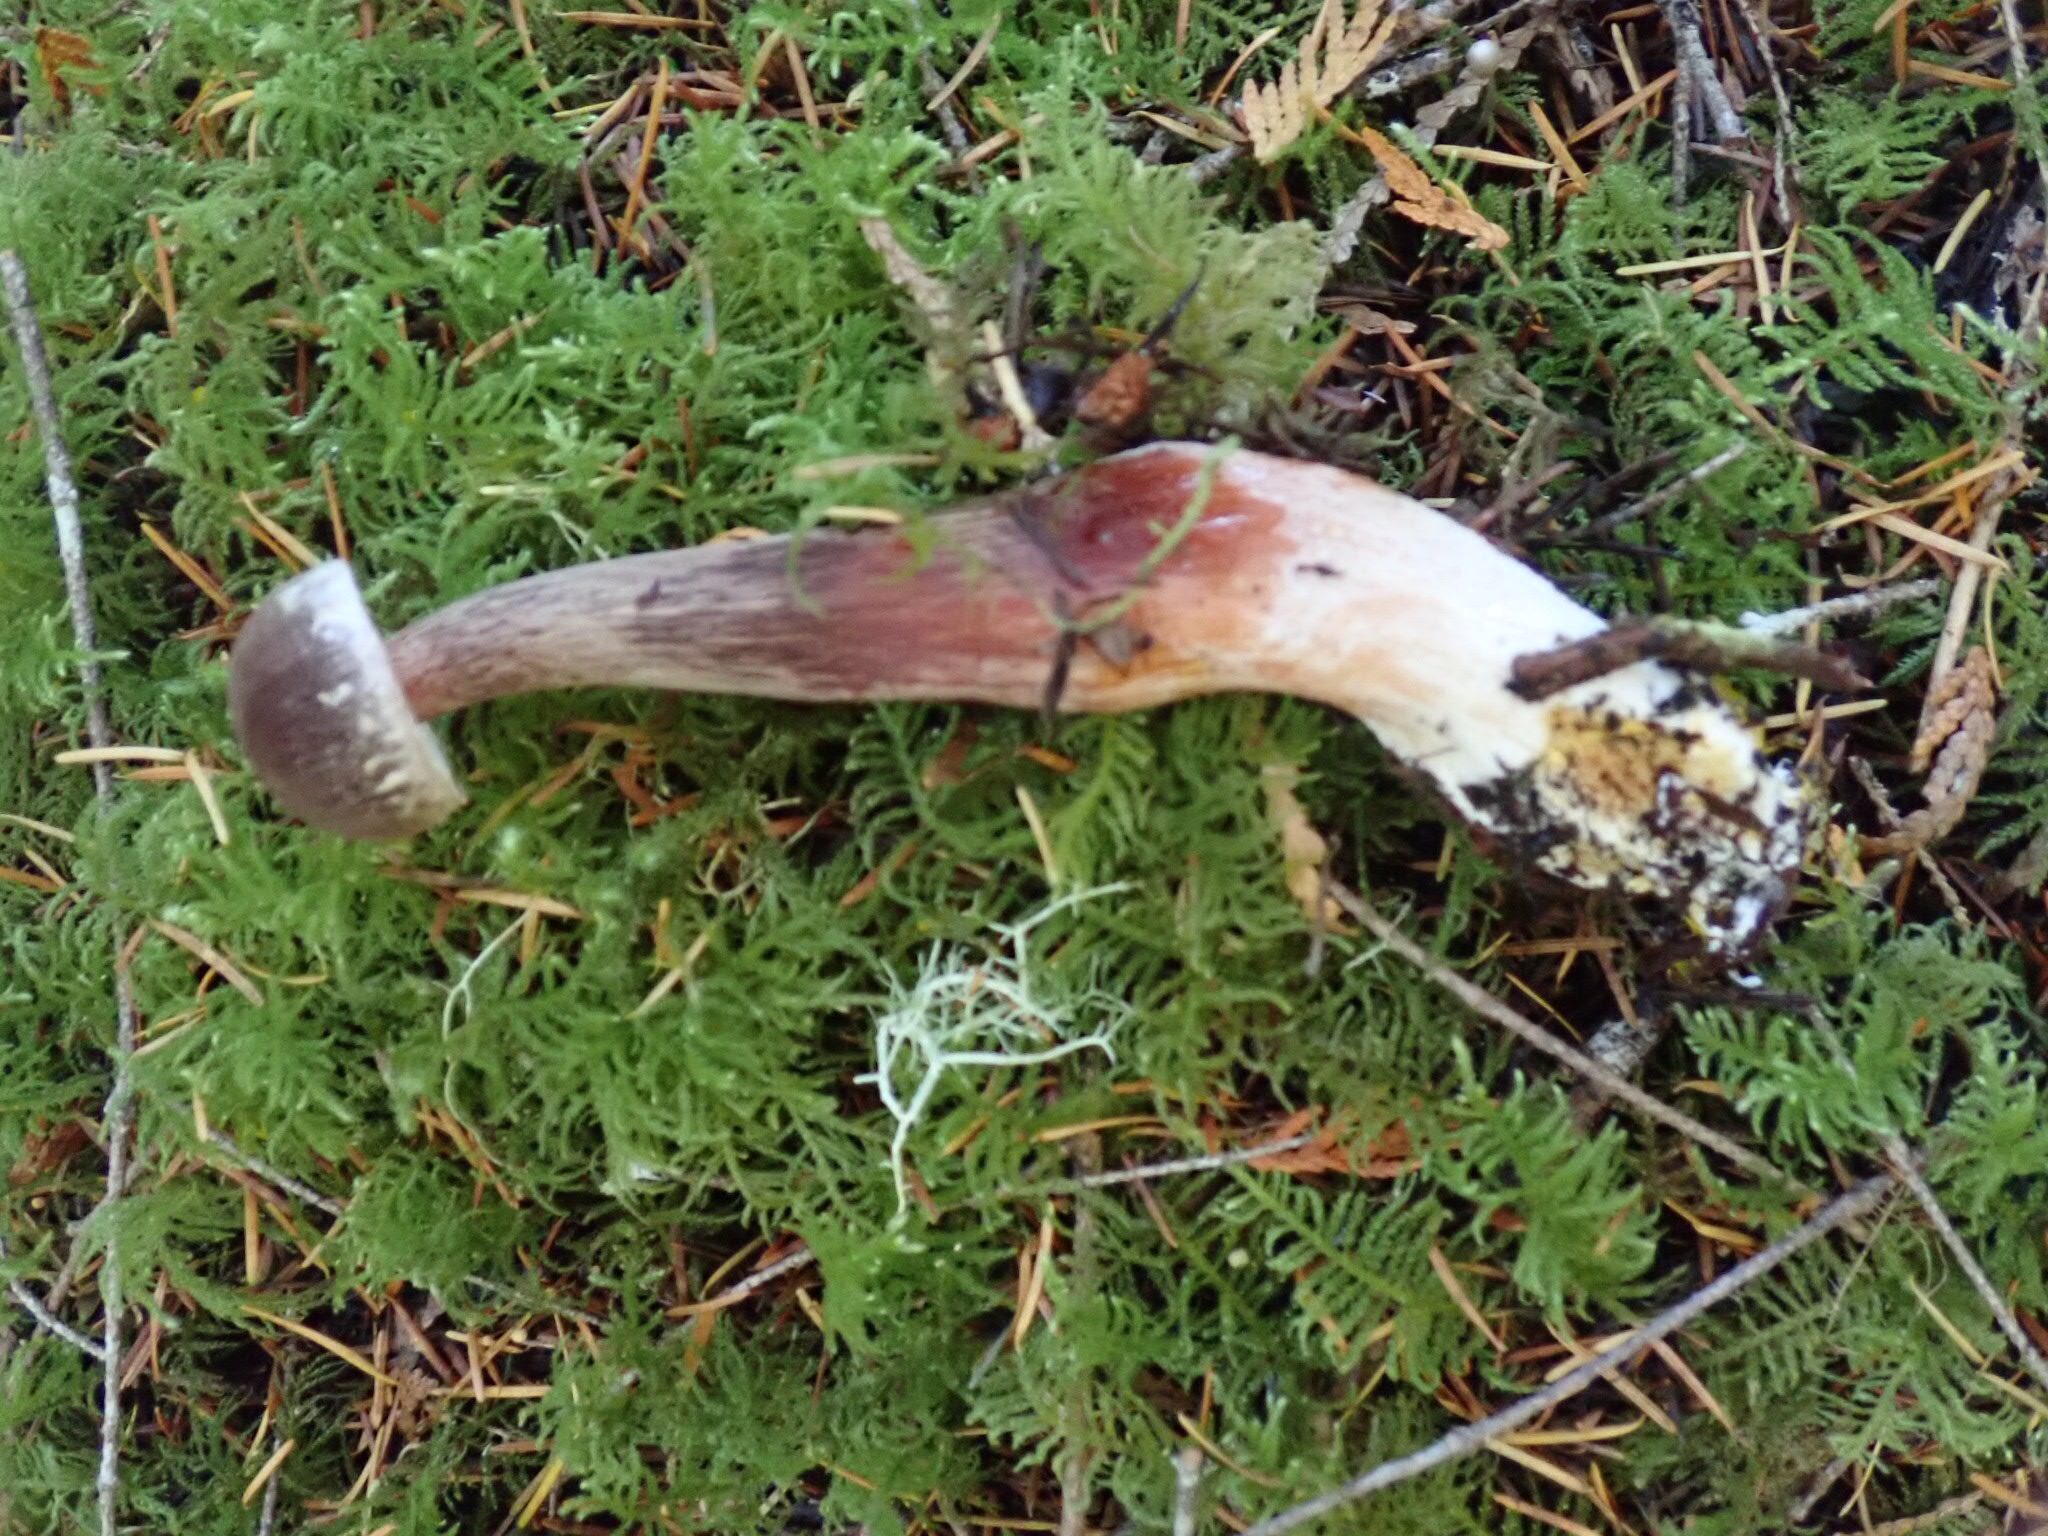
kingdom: Fungi
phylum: Basidiomycota
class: Agaricomycetes
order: Boletales
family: Boletaceae
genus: Aureoboletus
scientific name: Aureoboletus mirabilis
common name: Admirable bolete
